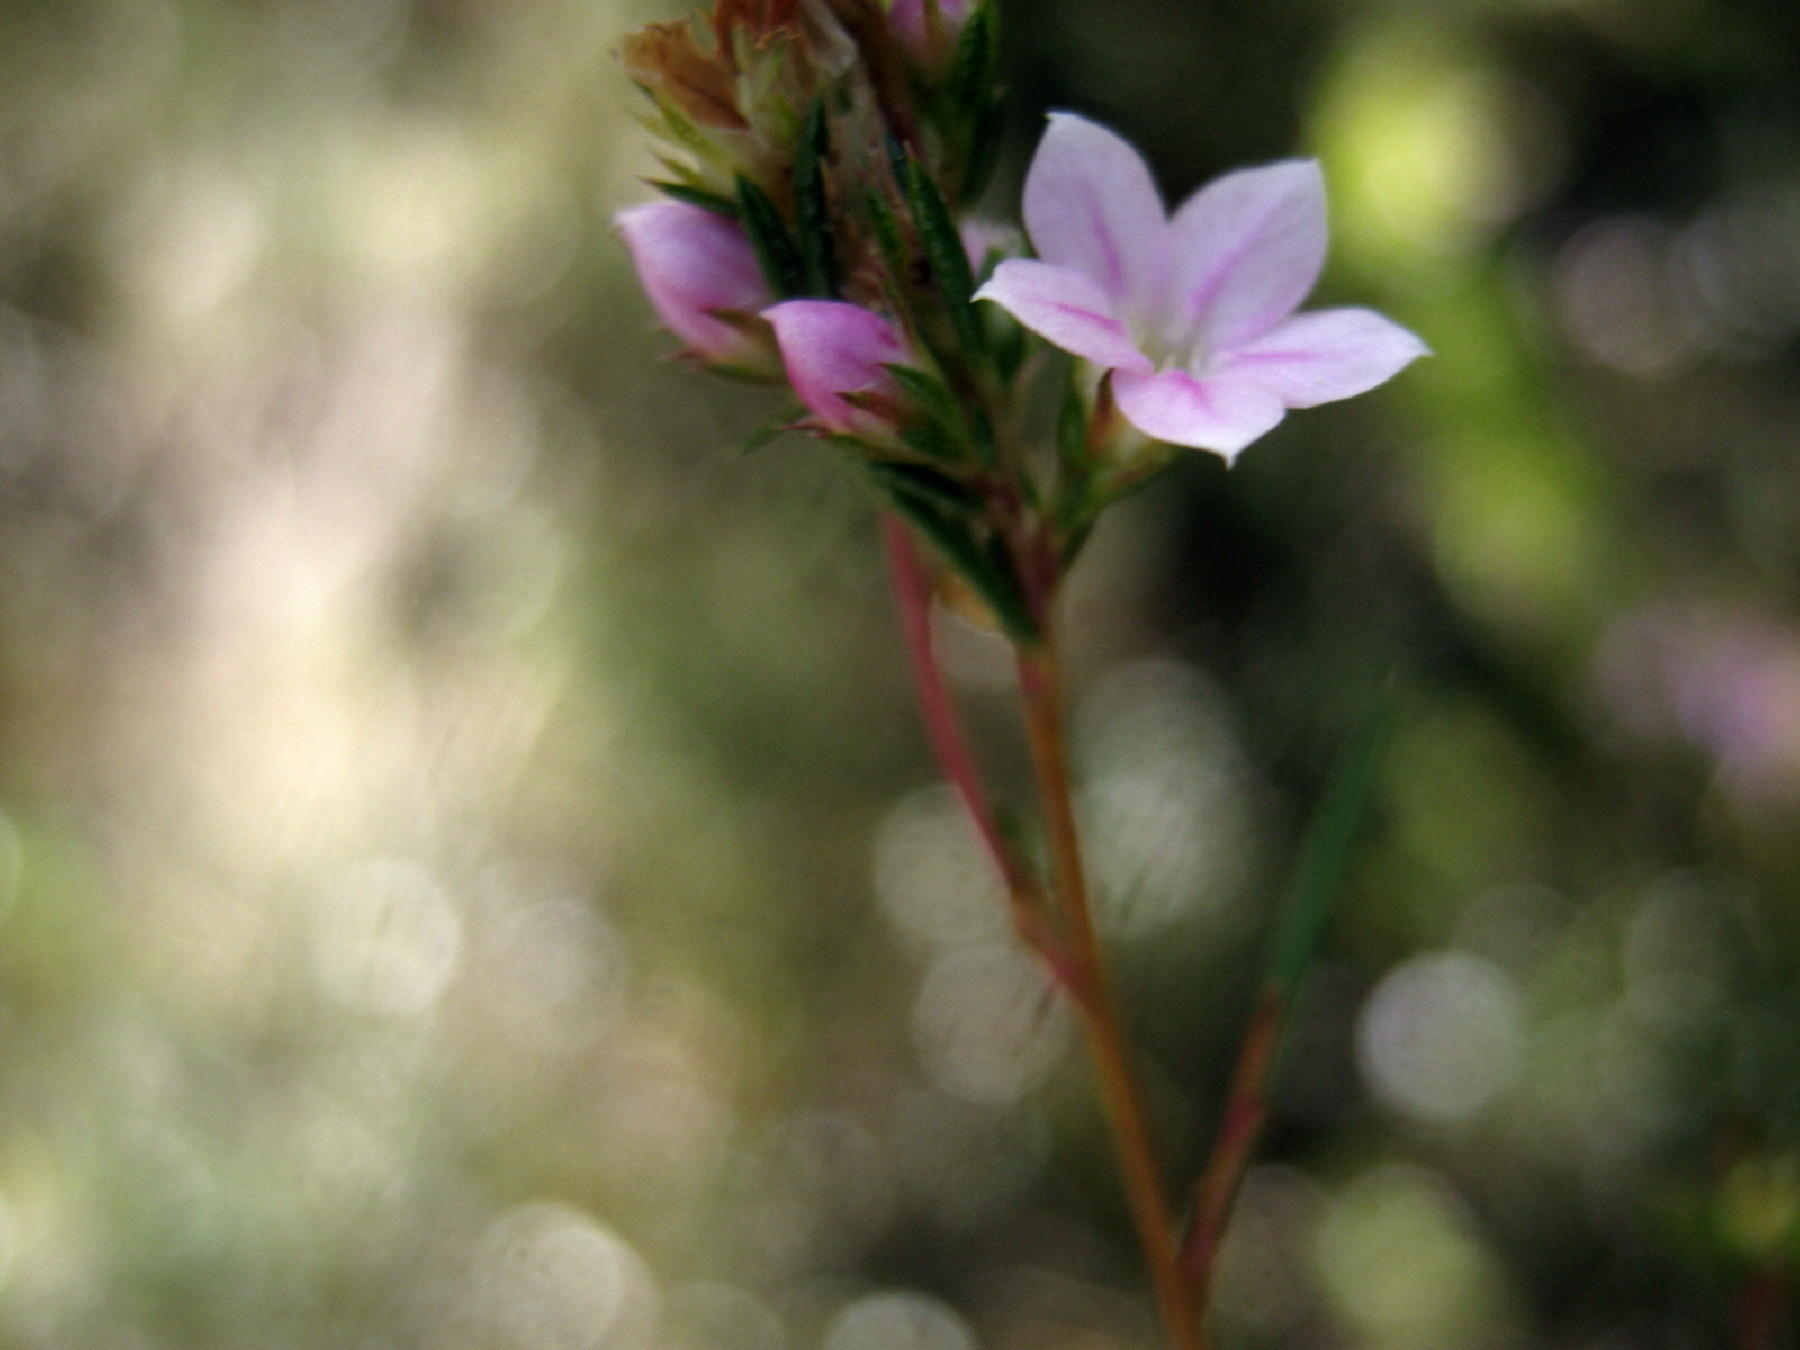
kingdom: Plantae
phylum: Tracheophyta
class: Magnoliopsida
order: Sapindales
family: Rutaceae
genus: Coleonema
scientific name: Coleonema virgatum
